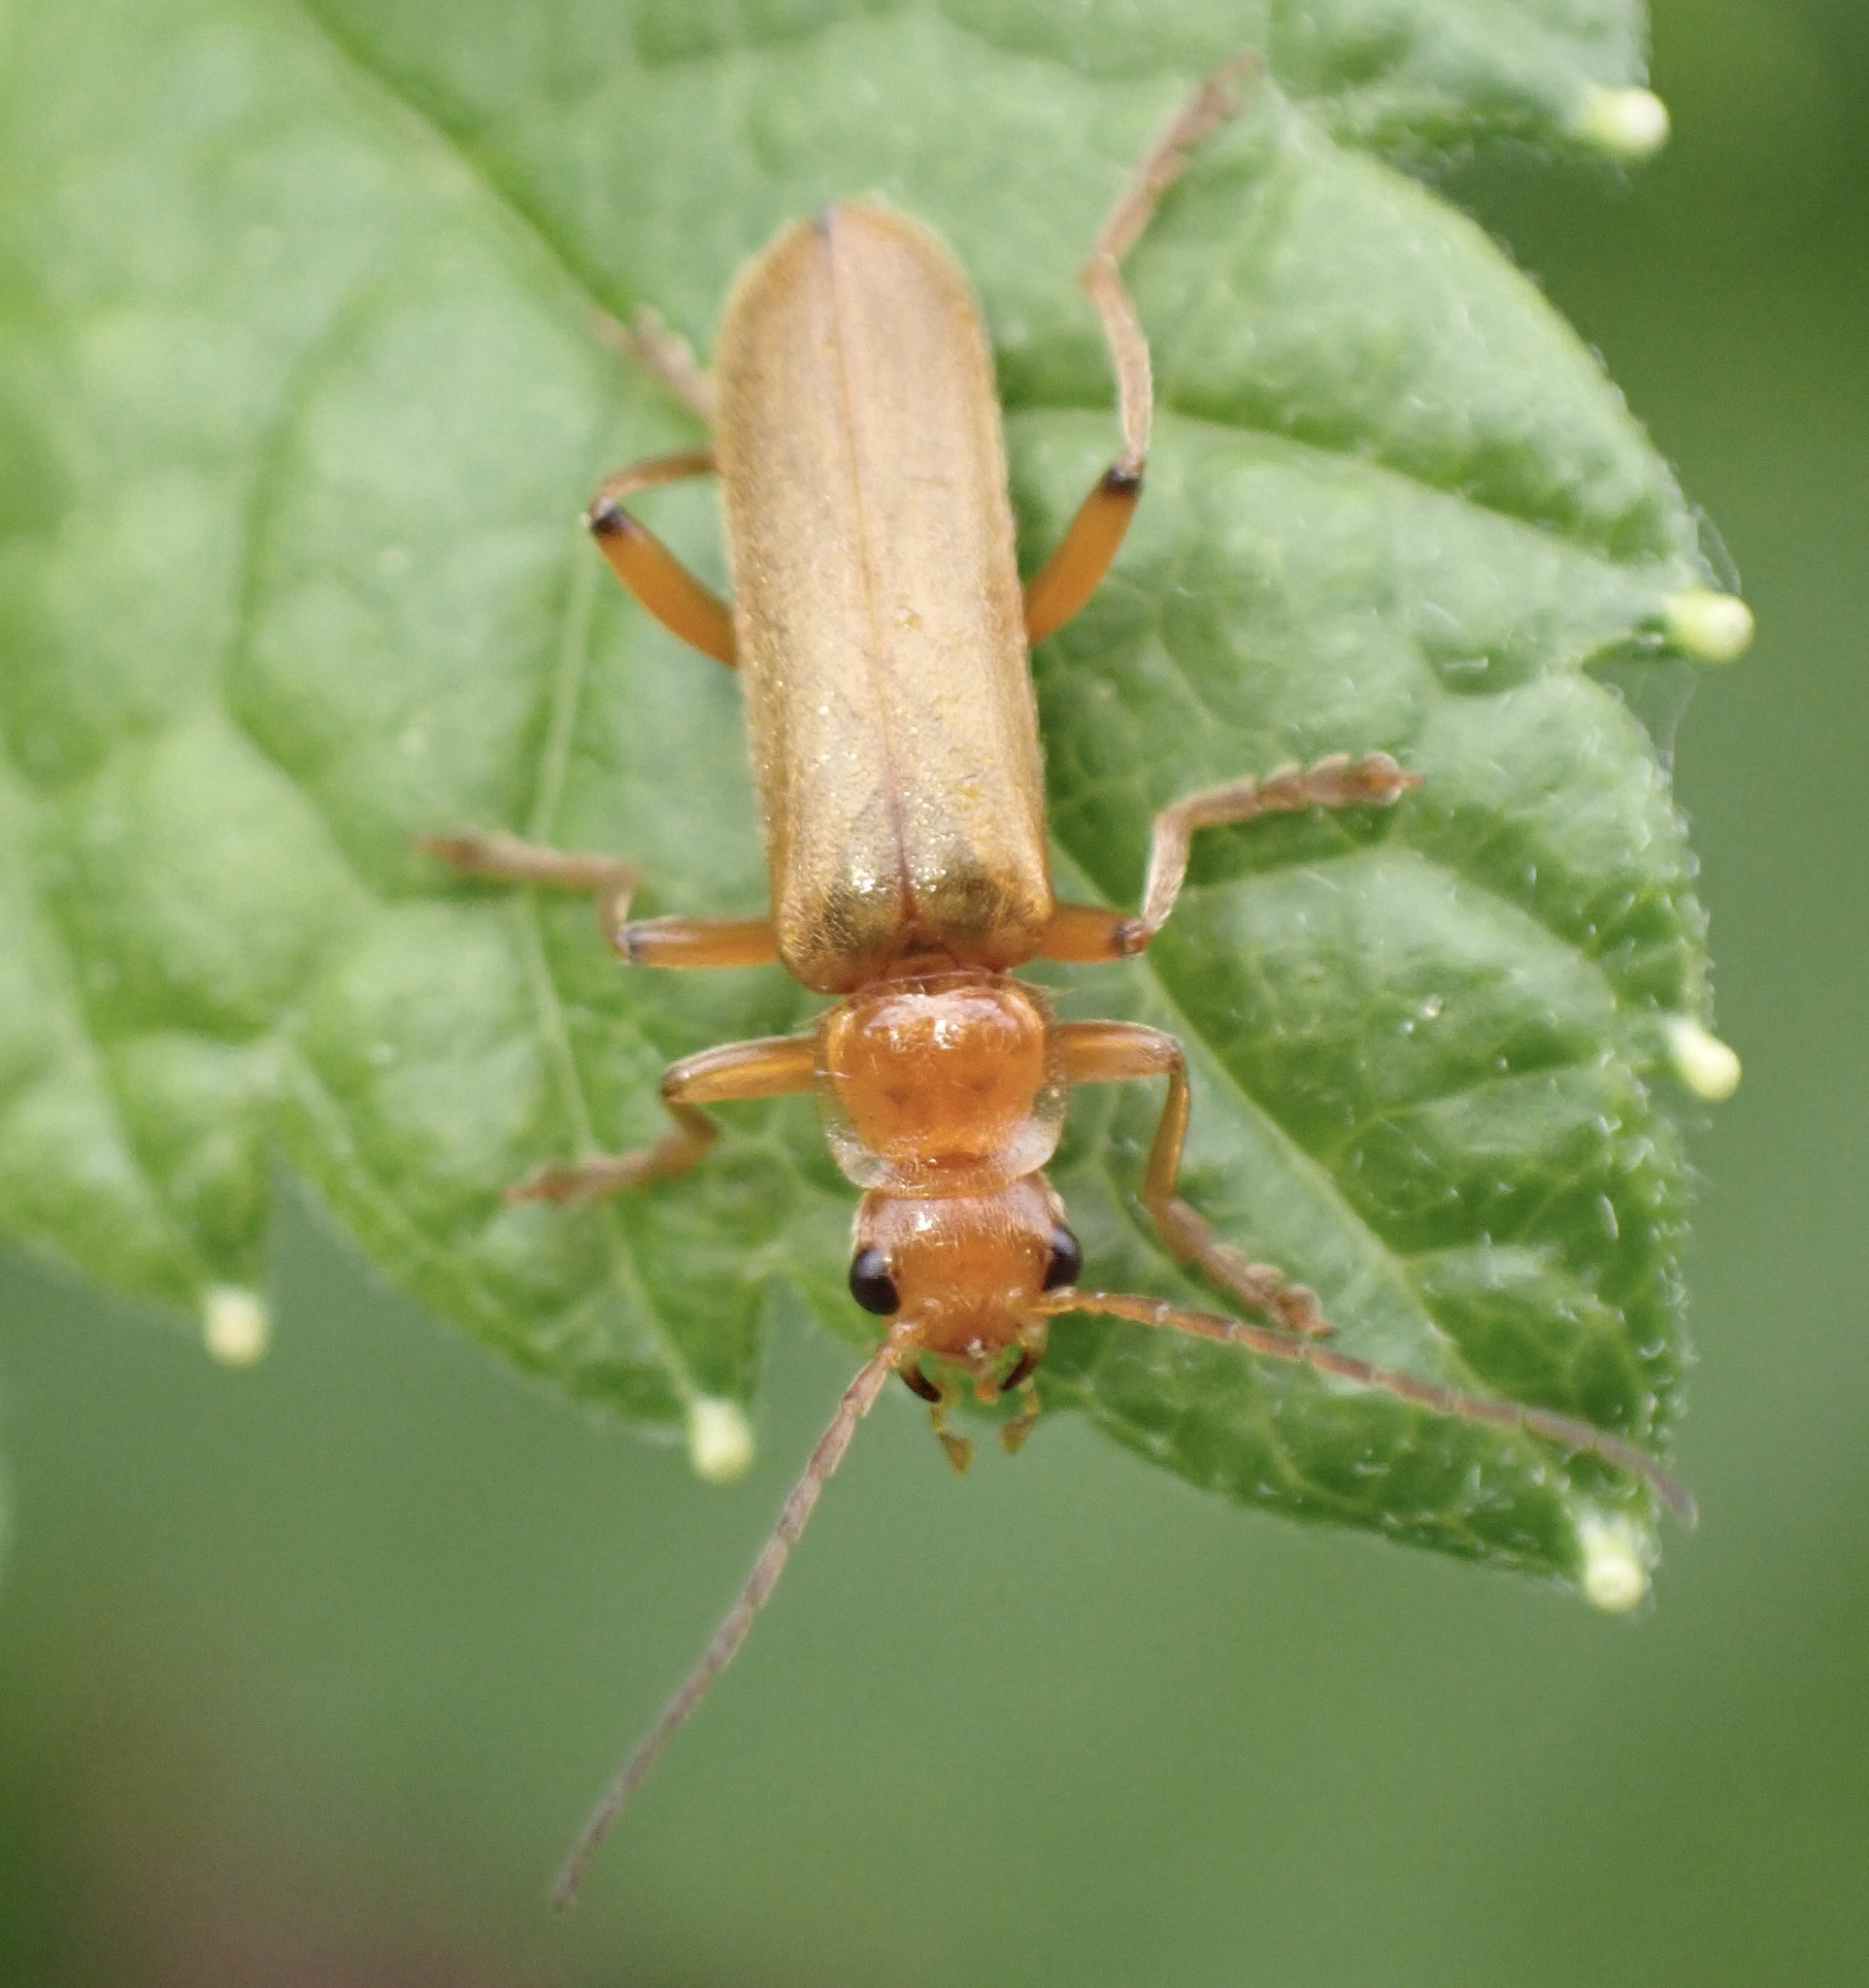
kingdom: Animalia
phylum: Arthropoda
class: Insecta
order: Coleoptera
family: Cantharidae
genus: Cantharis
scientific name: Cantharis cryptica
